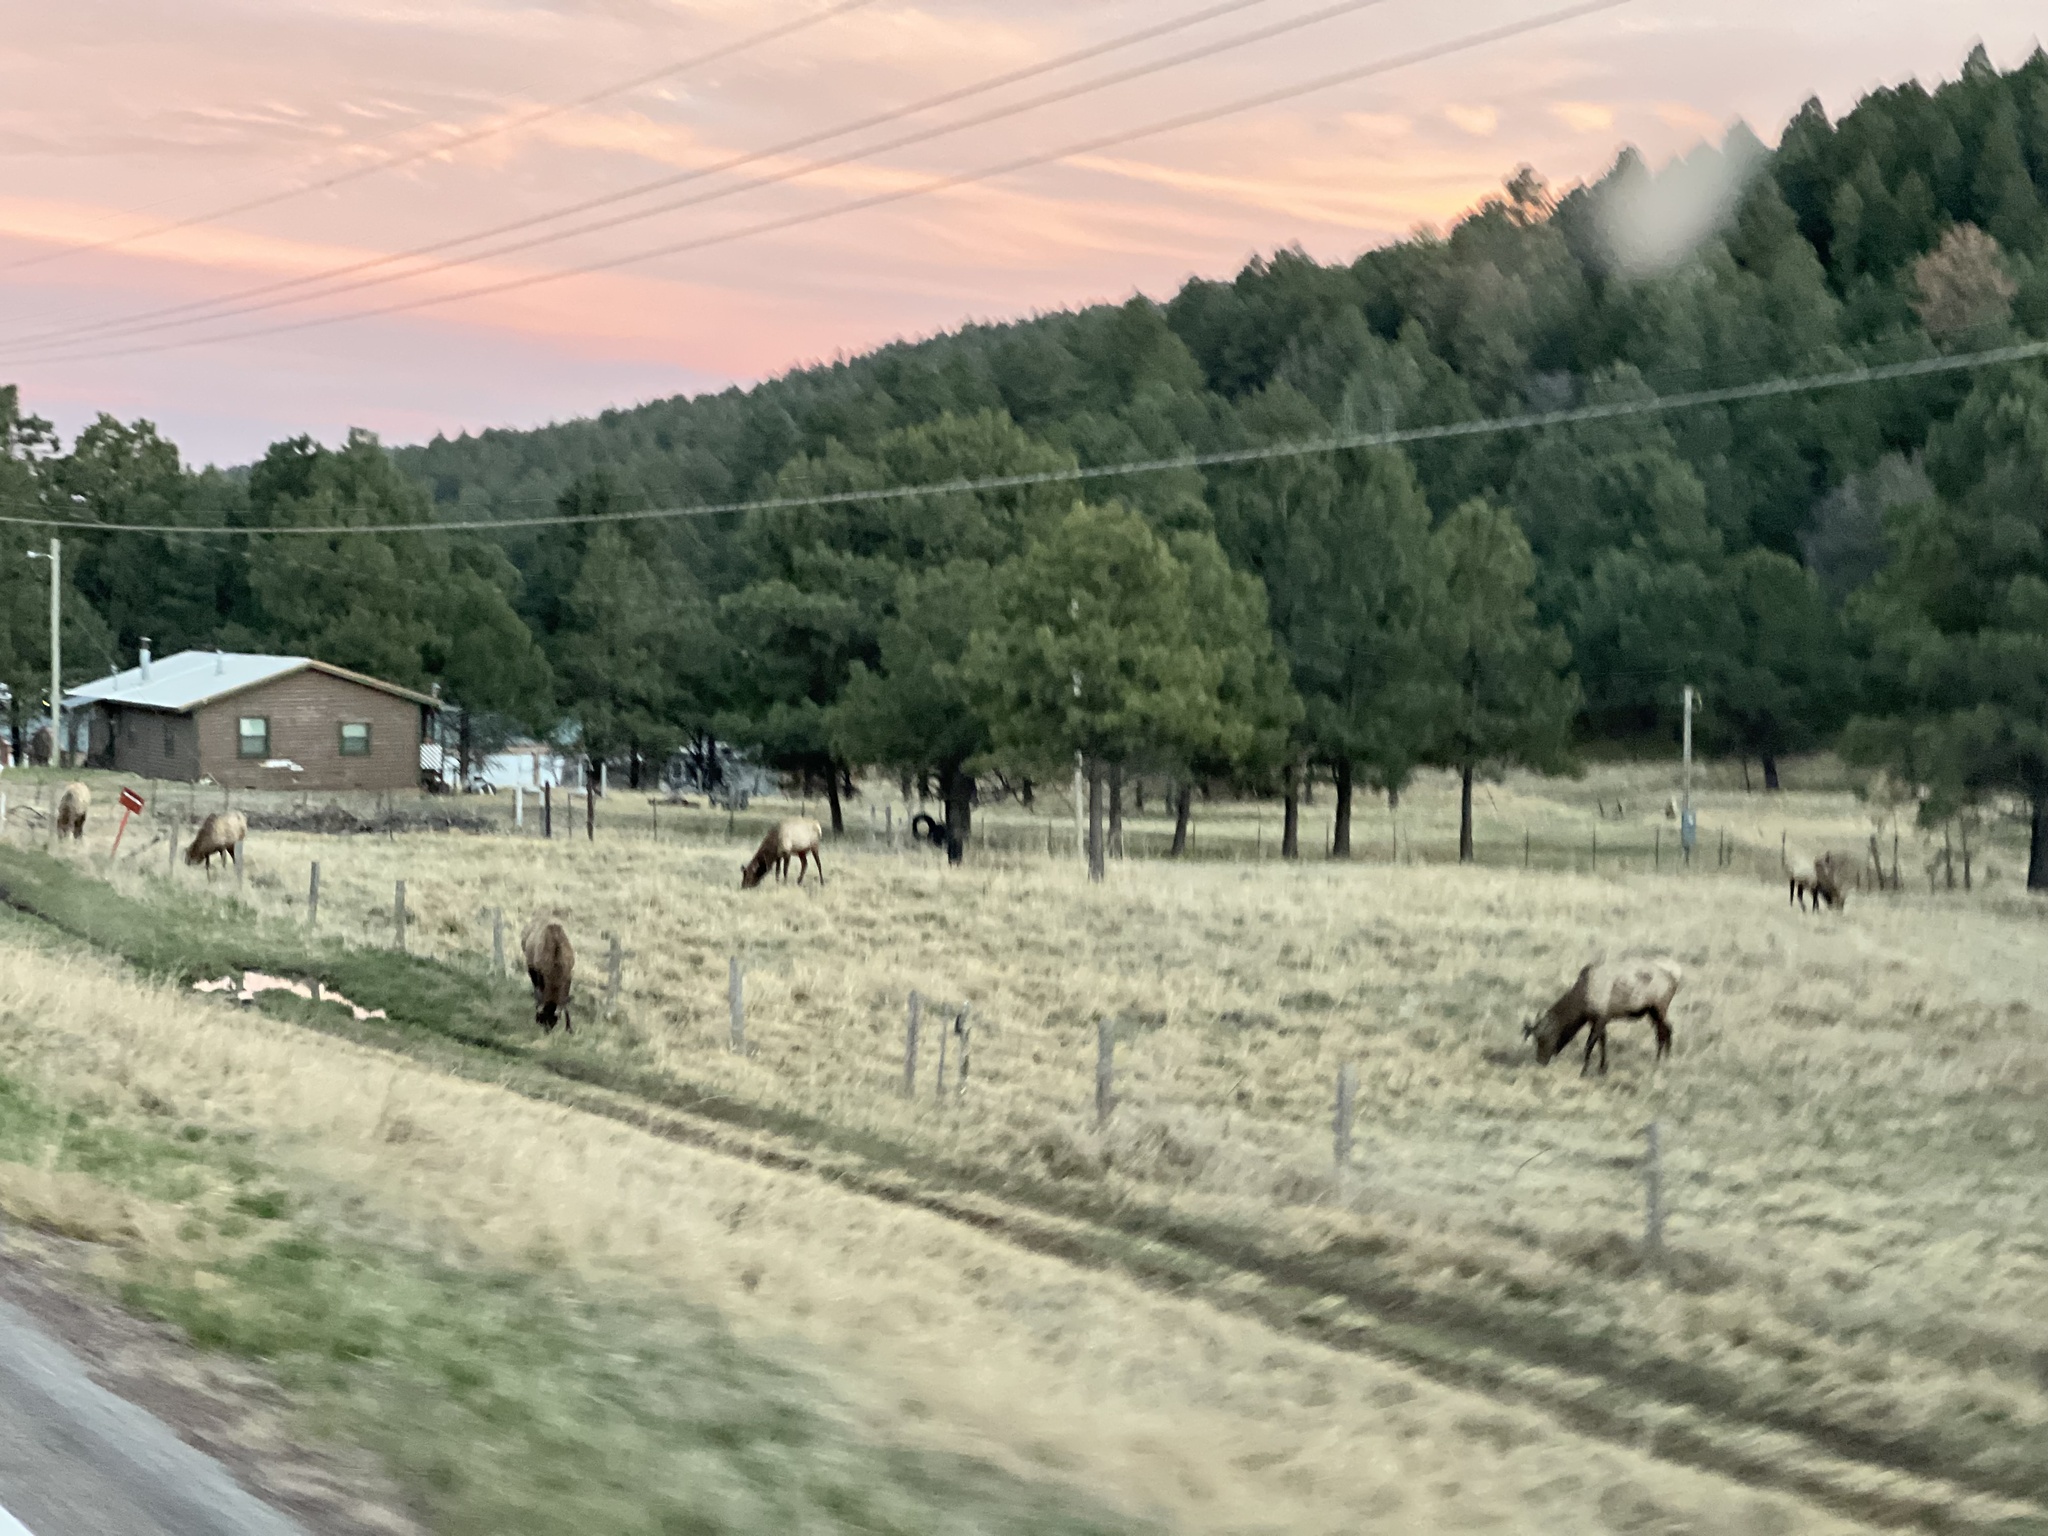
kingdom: Animalia
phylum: Chordata
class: Mammalia
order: Artiodactyla
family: Cervidae
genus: Cervus
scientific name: Cervus elaphus
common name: Red deer
